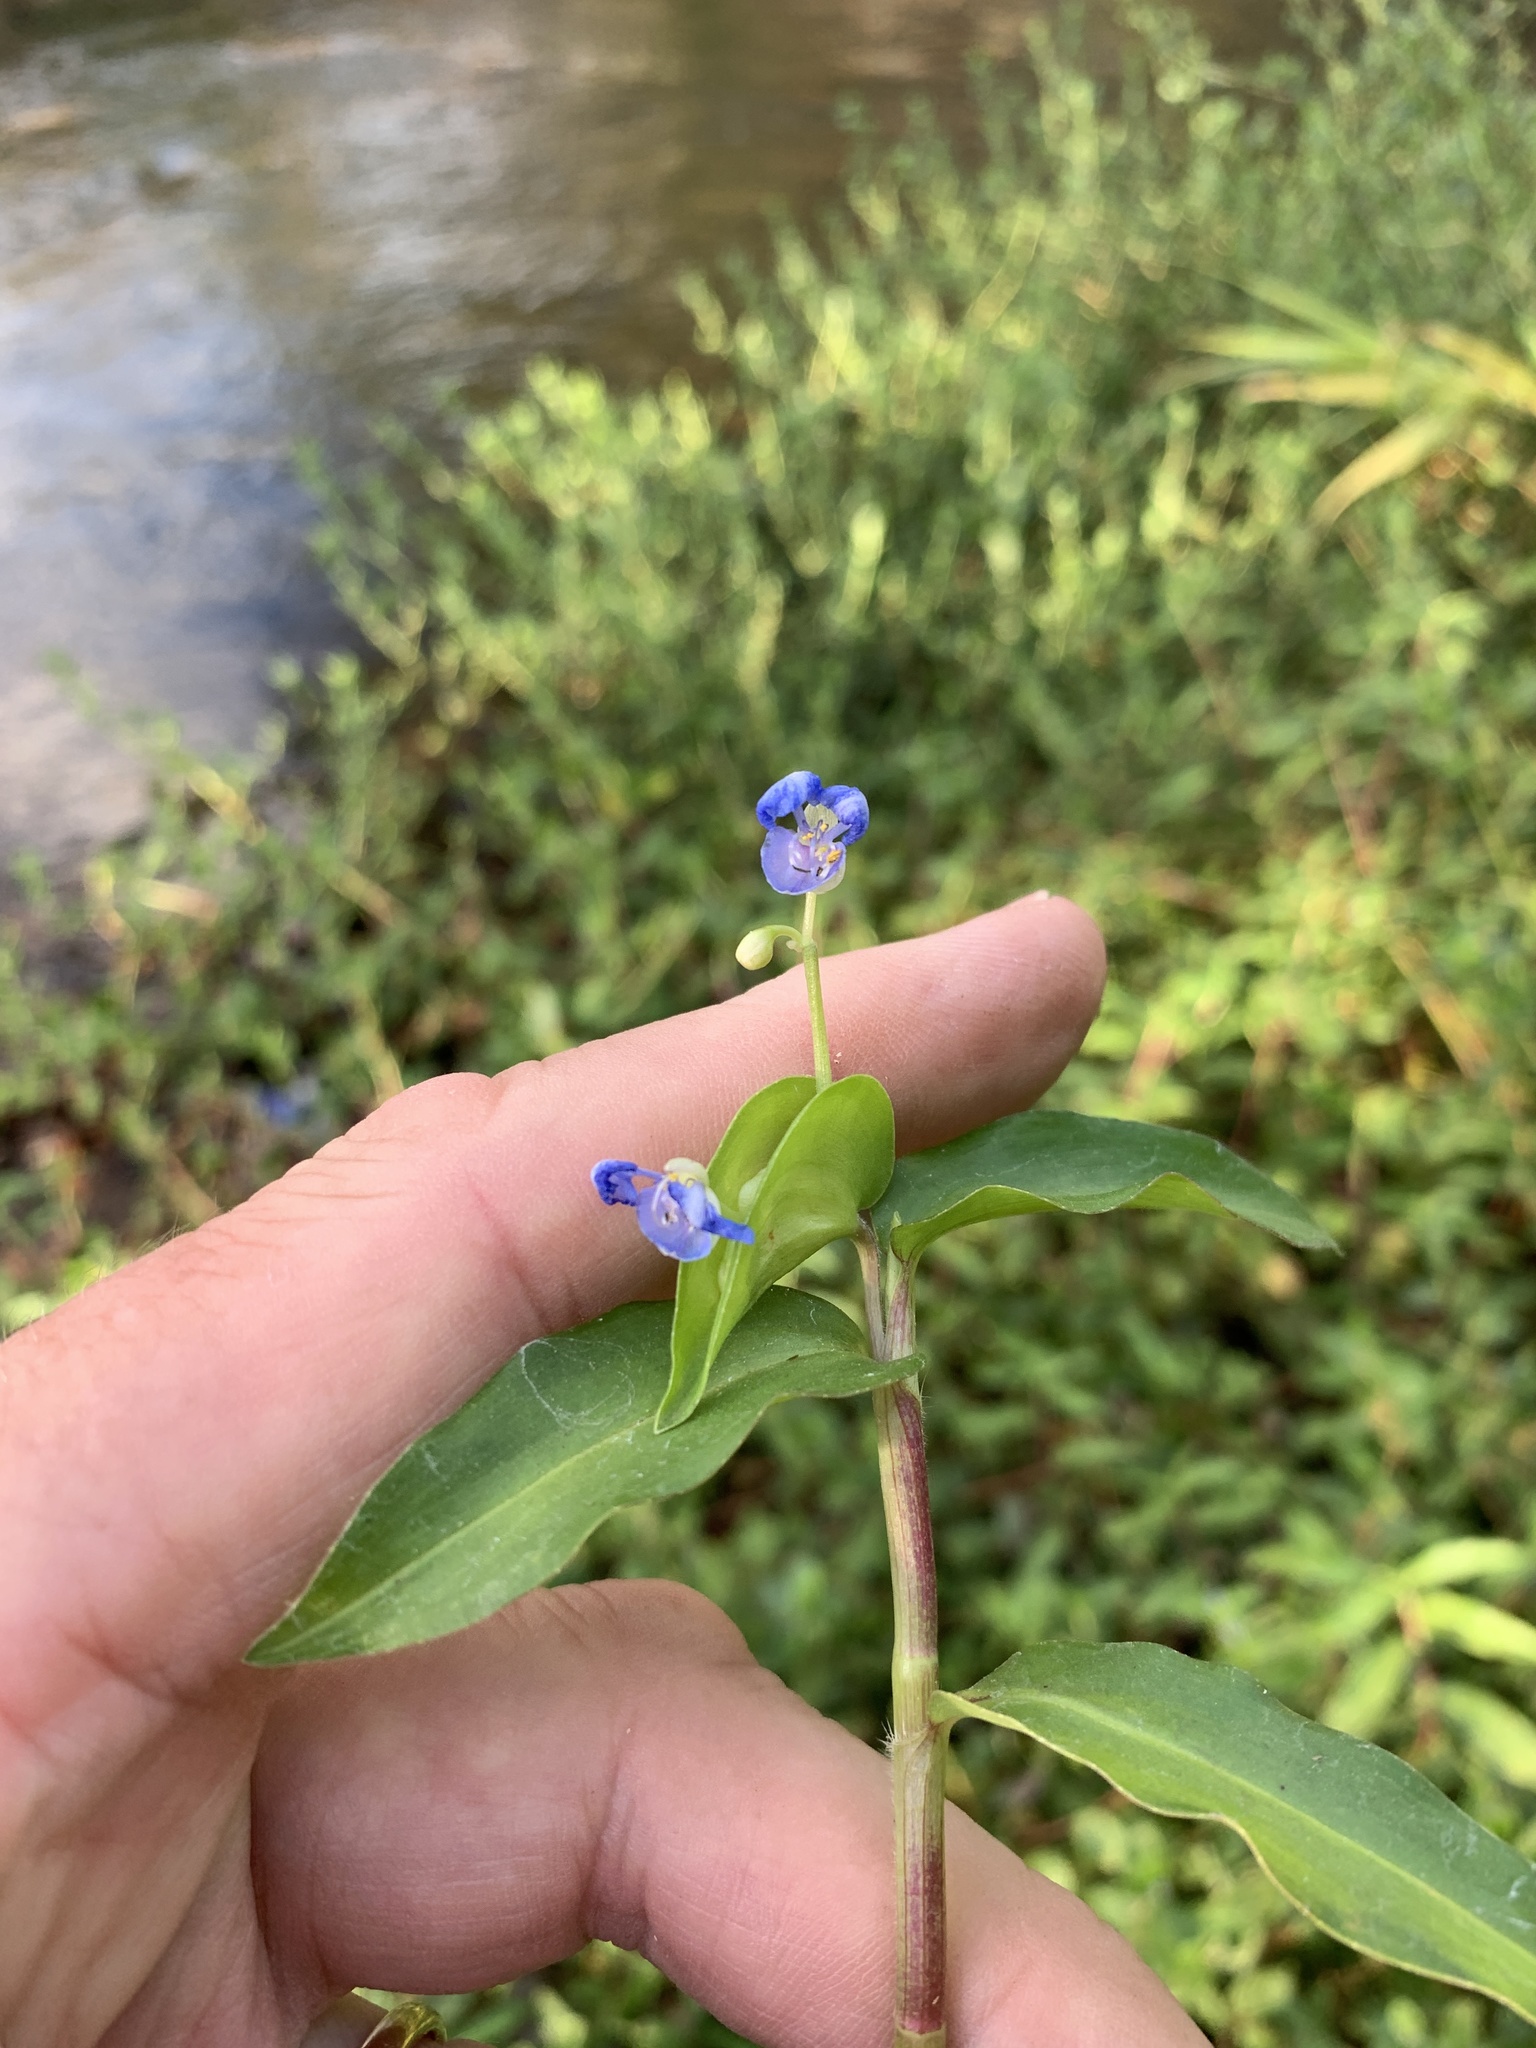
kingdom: Plantae
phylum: Tracheophyta
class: Liliopsida
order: Commelinales
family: Commelinaceae
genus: Commelina
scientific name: Commelina diffusa
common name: Climbing dayflower
